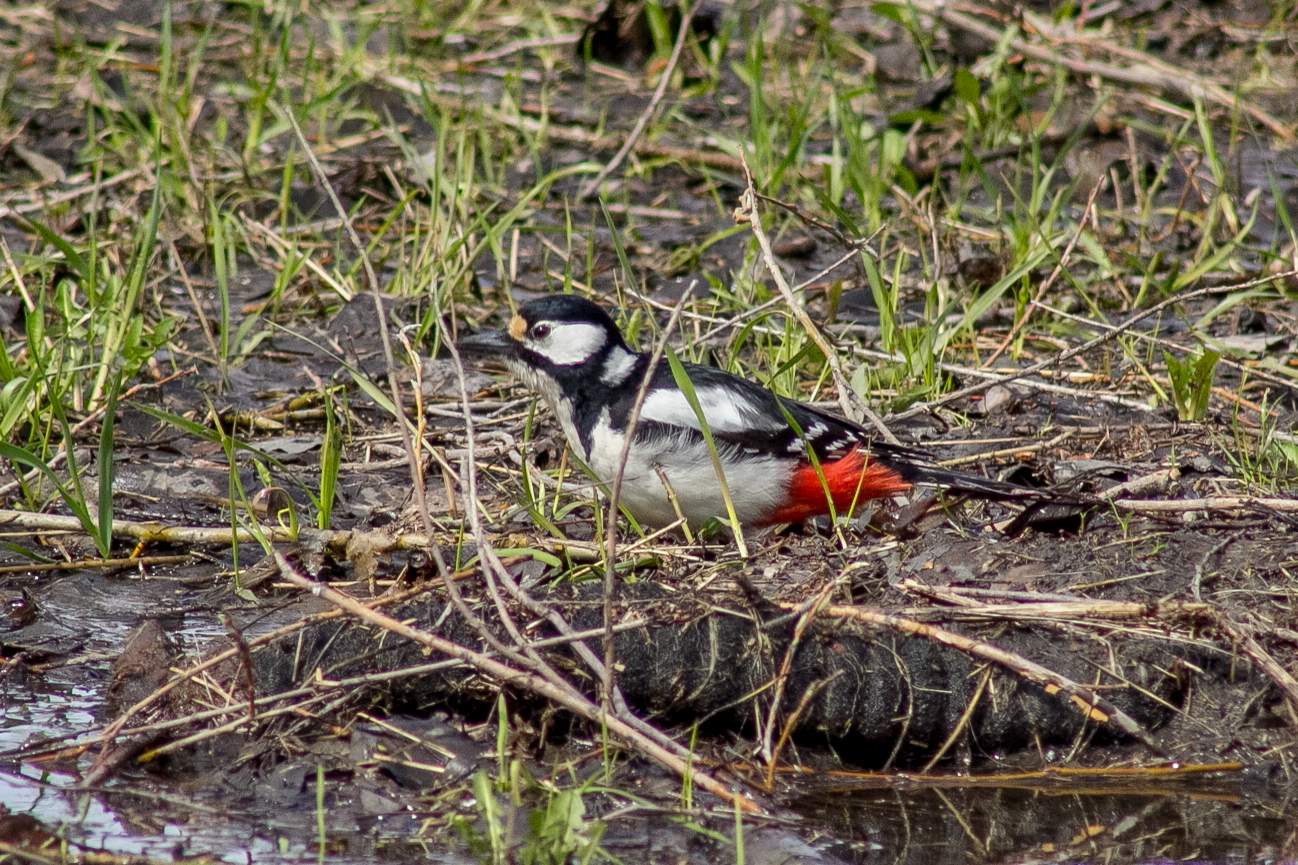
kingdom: Animalia
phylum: Chordata
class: Aves
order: Piciformes
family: Picidae
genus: Dendrocopos
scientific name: Dendrocopos major
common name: Great spotted woodpecker
